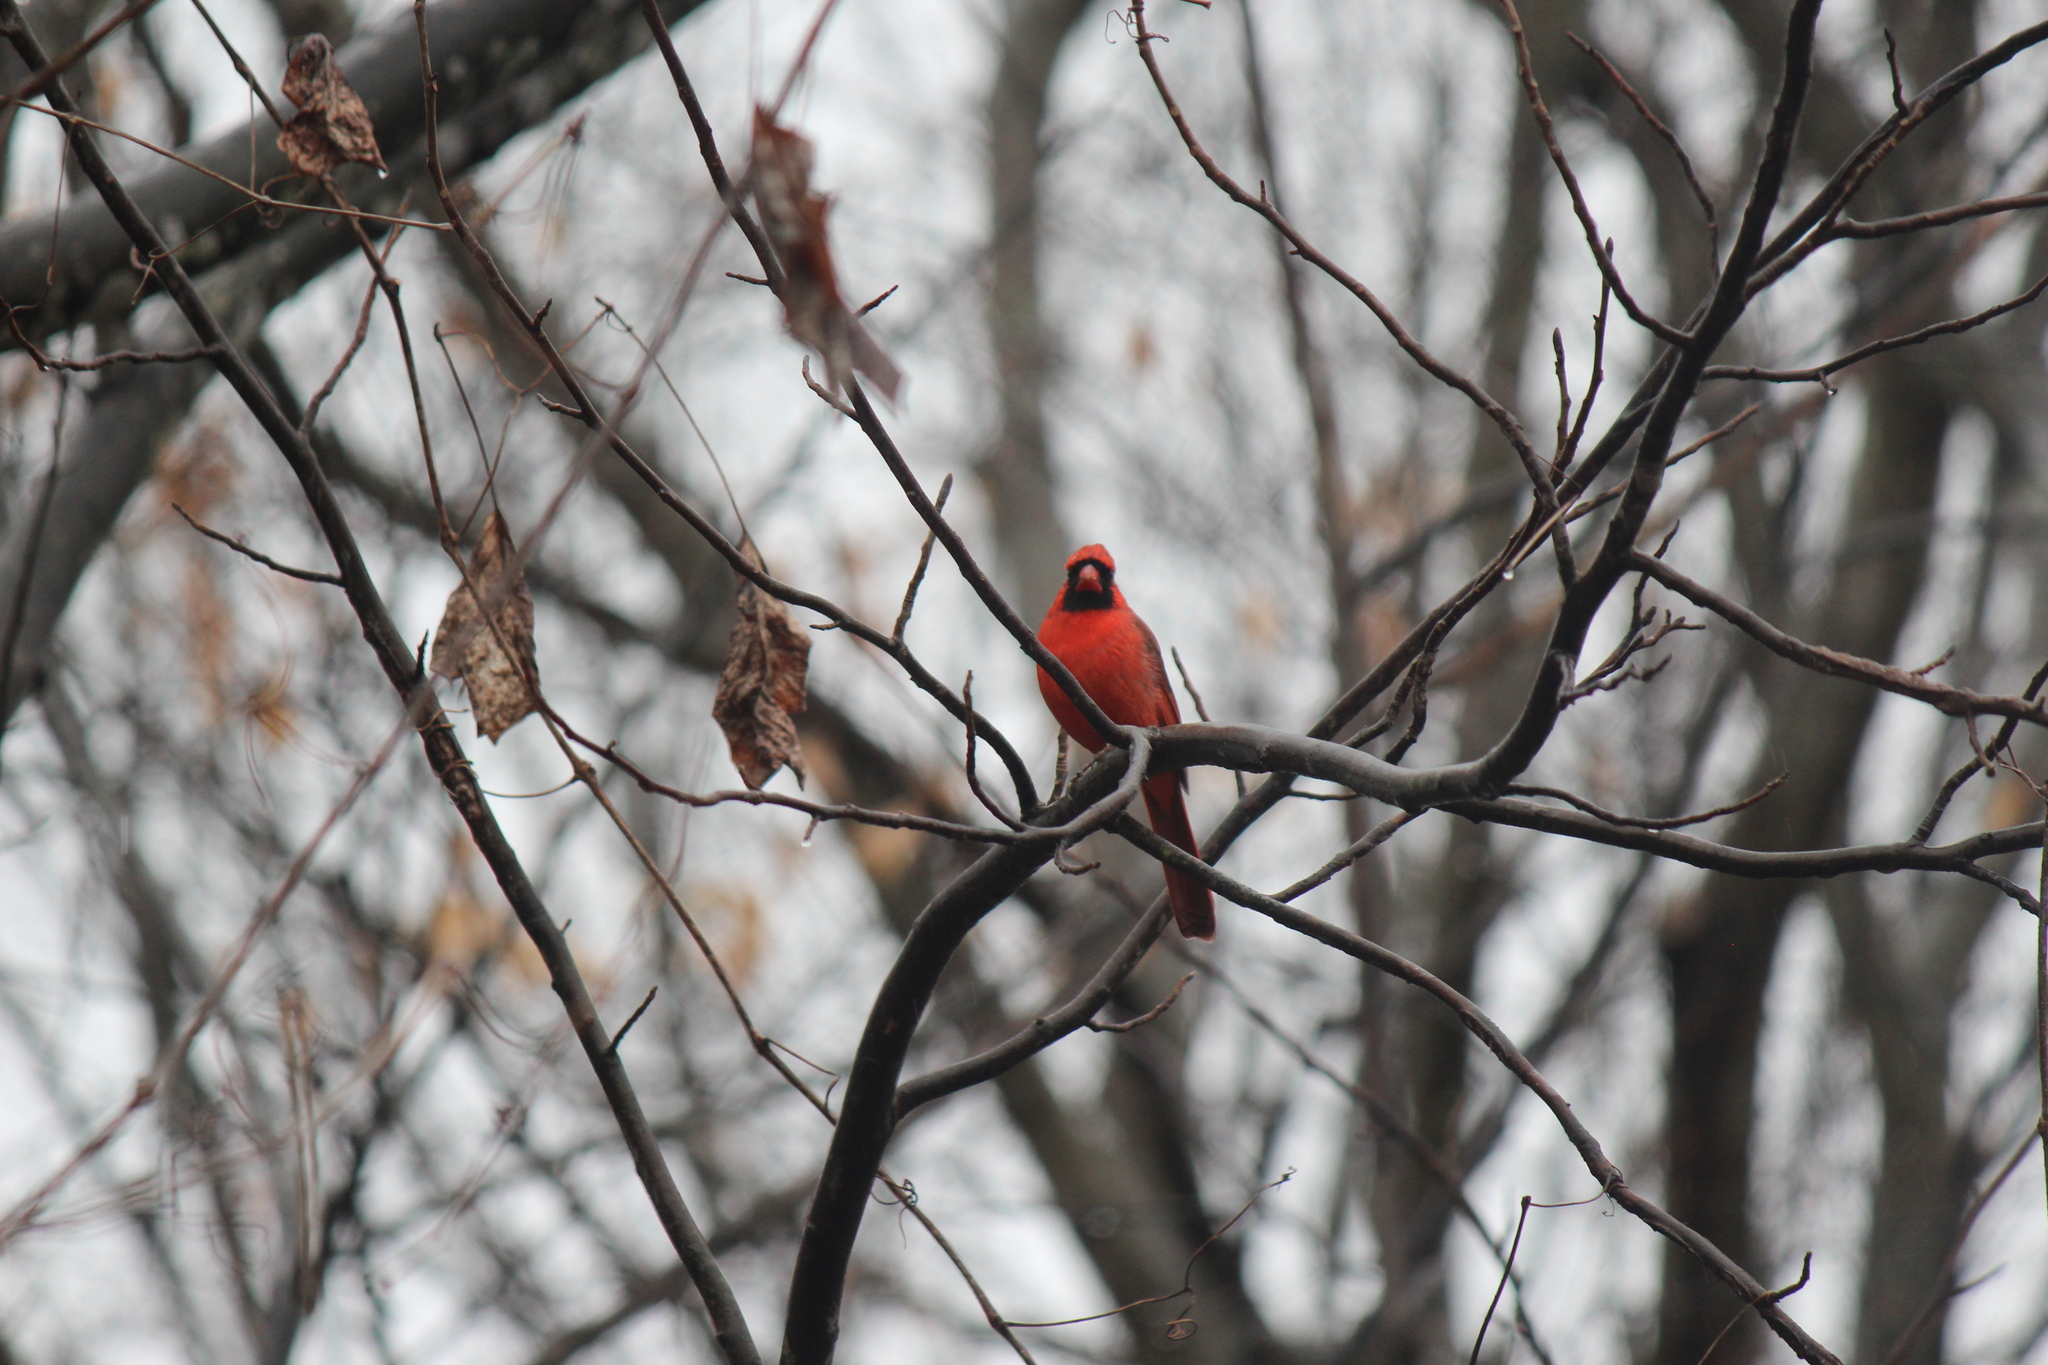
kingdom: Animalia
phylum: Chordata
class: Aves
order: Passeriformes
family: Cardinalidae
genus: Cardinalis
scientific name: Cardinalis cardinalis
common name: Northern cardinal
